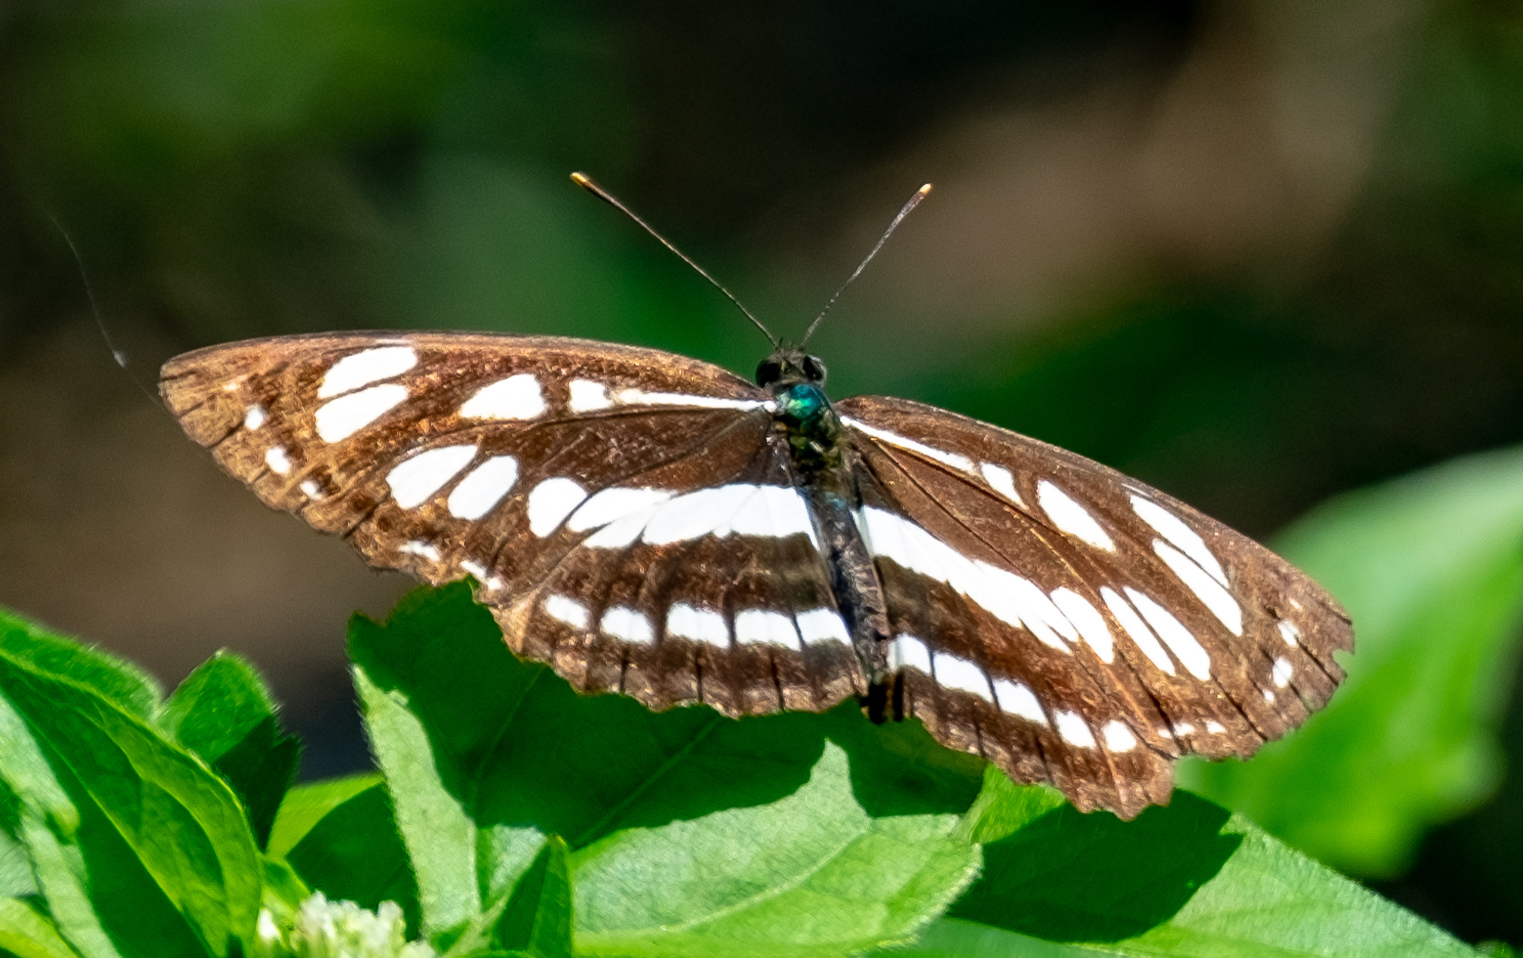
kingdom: Animalia
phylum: Arthropoda
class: Insecta
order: Lepidoptera
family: Nymphalidae
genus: Neptis
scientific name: Neptis hylas
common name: Common sailer
